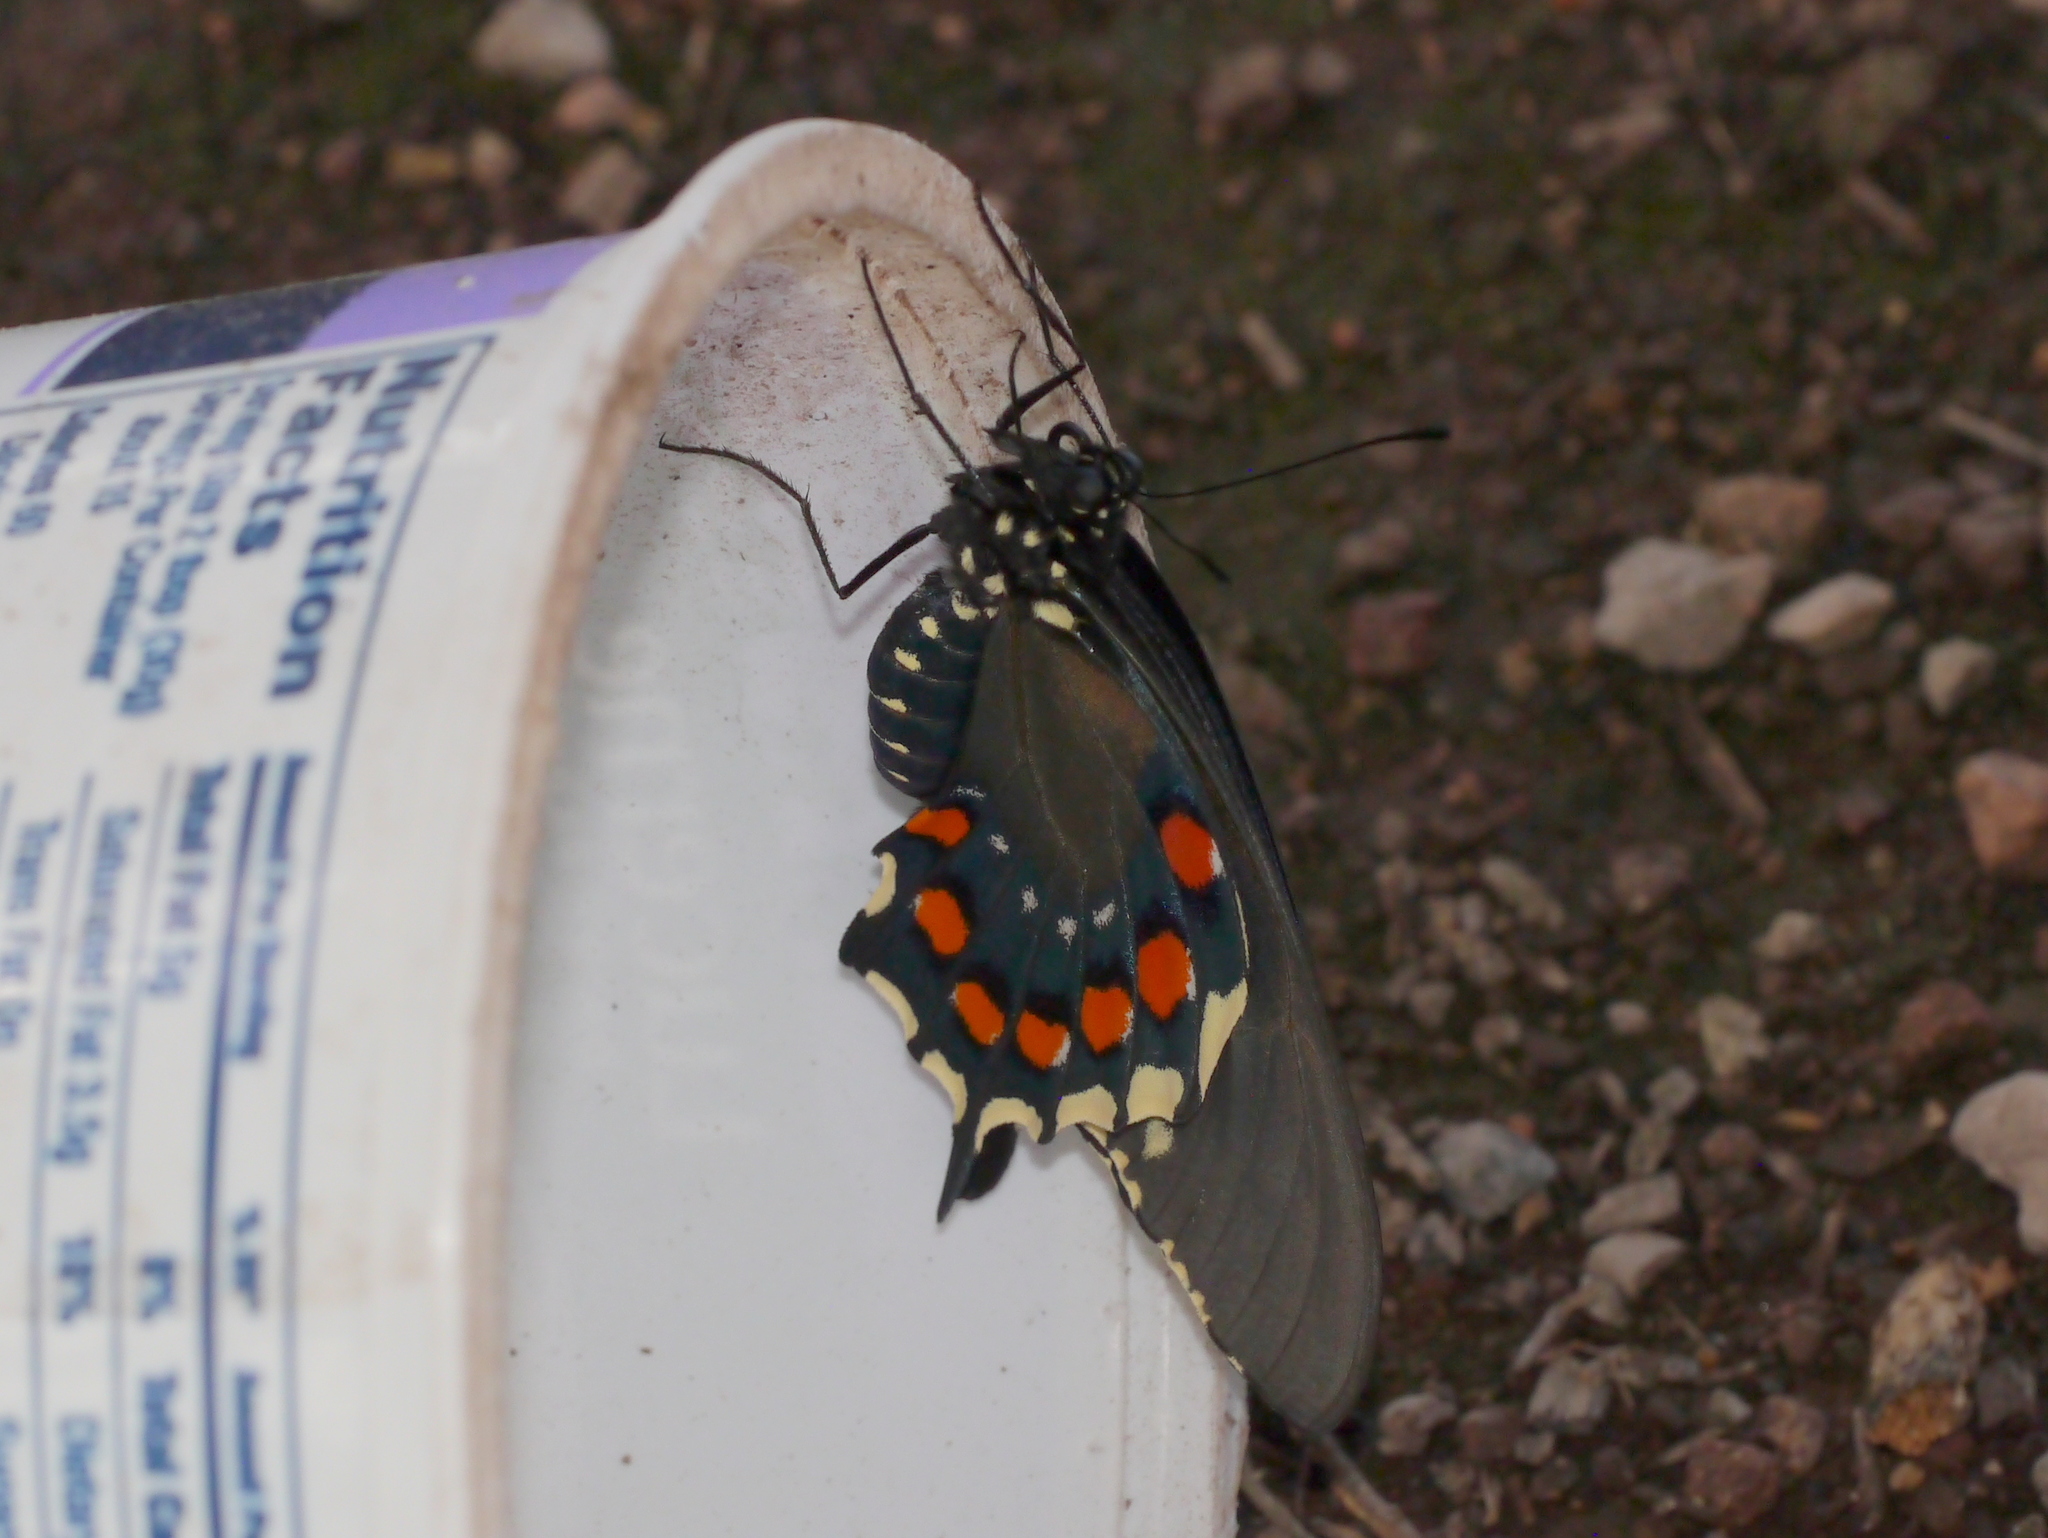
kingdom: Animalia
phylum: Arthropoda
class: Insecta
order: Lepidoptera
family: Papilionidae
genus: Battus
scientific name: Battus philenor
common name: Pipevine swallowtail
